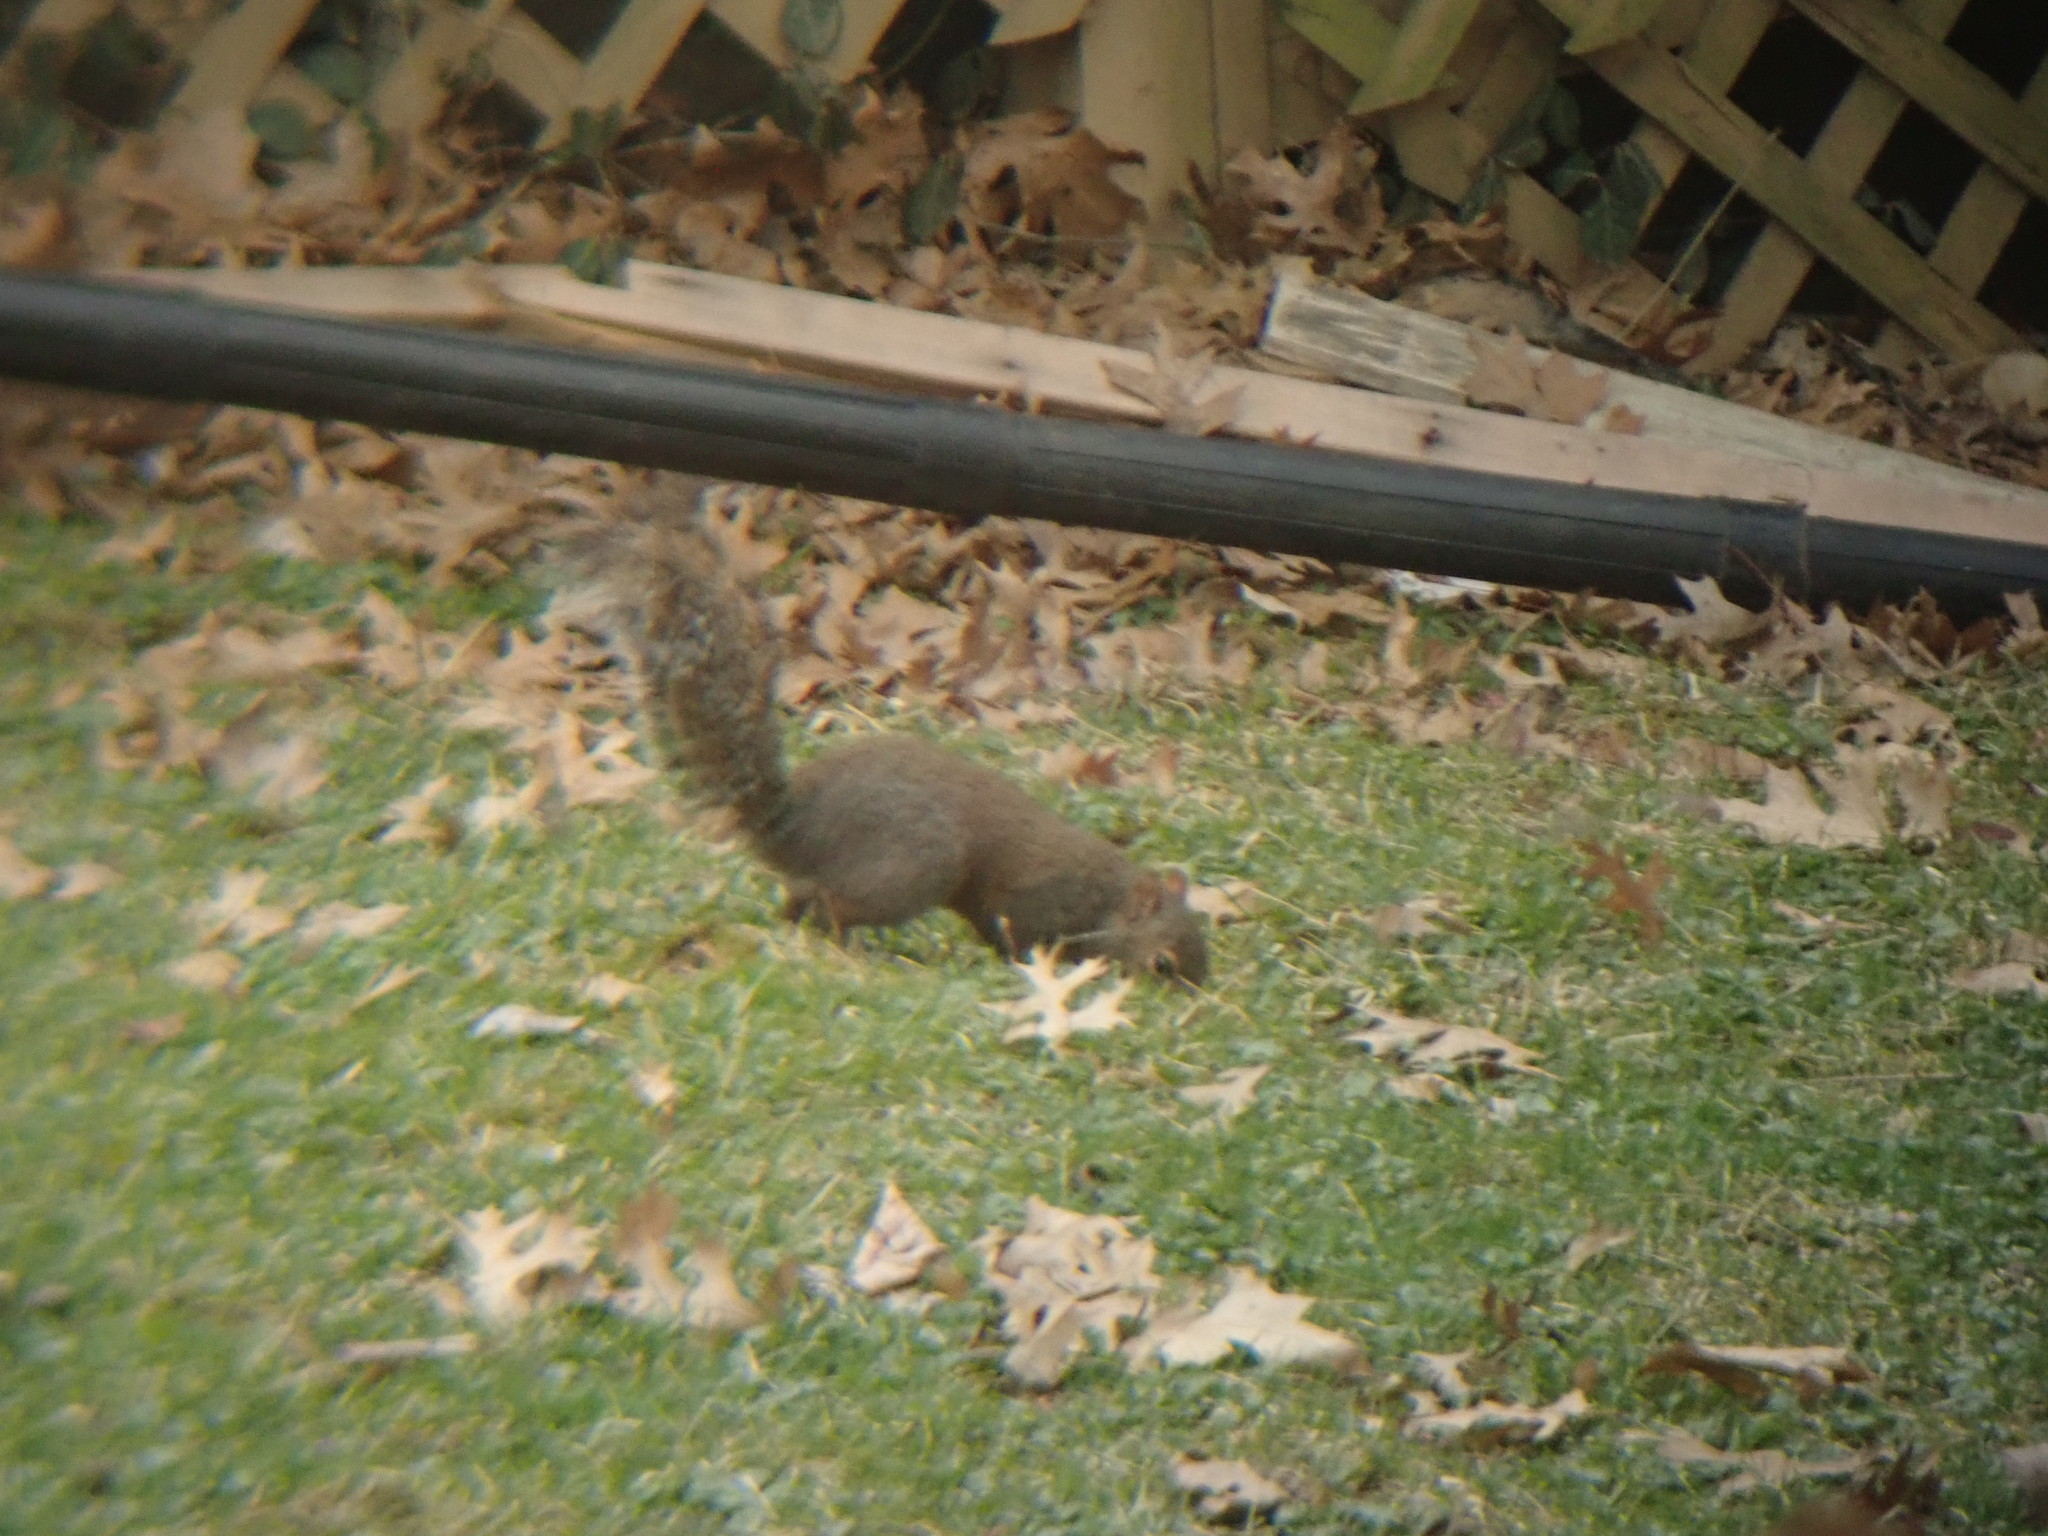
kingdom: Animalia
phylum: Chordata
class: Mammalia
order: Rodentia
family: Sciuridae
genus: Sciurus
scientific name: Sciurus carolinensis
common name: Eastern gray squirrel
